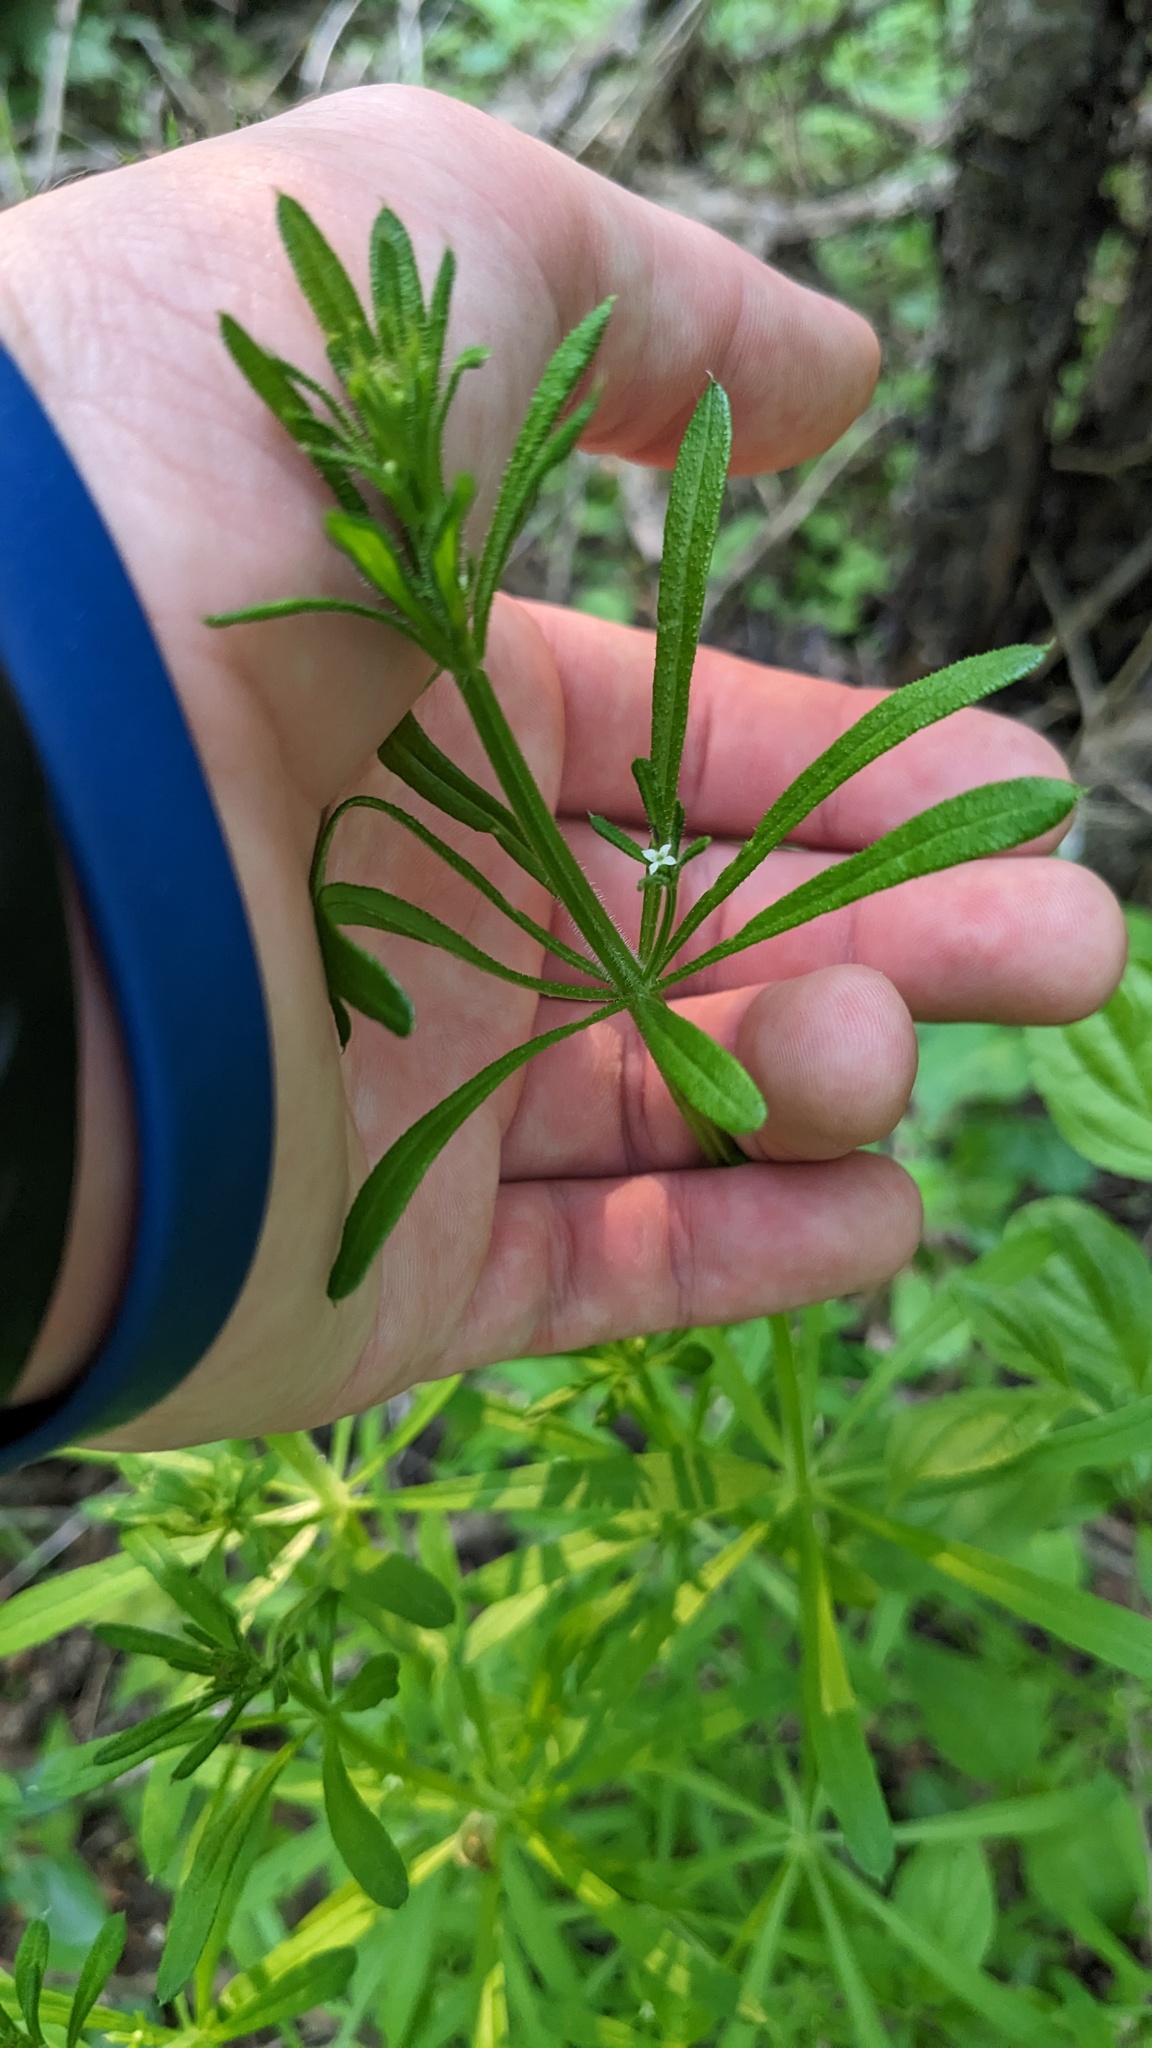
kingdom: Plantae
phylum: Tracheophyta
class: Magnoliopsida
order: Gentianales
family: Rubiaceae
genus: Galium
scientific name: Galium aparine
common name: Cleavers
